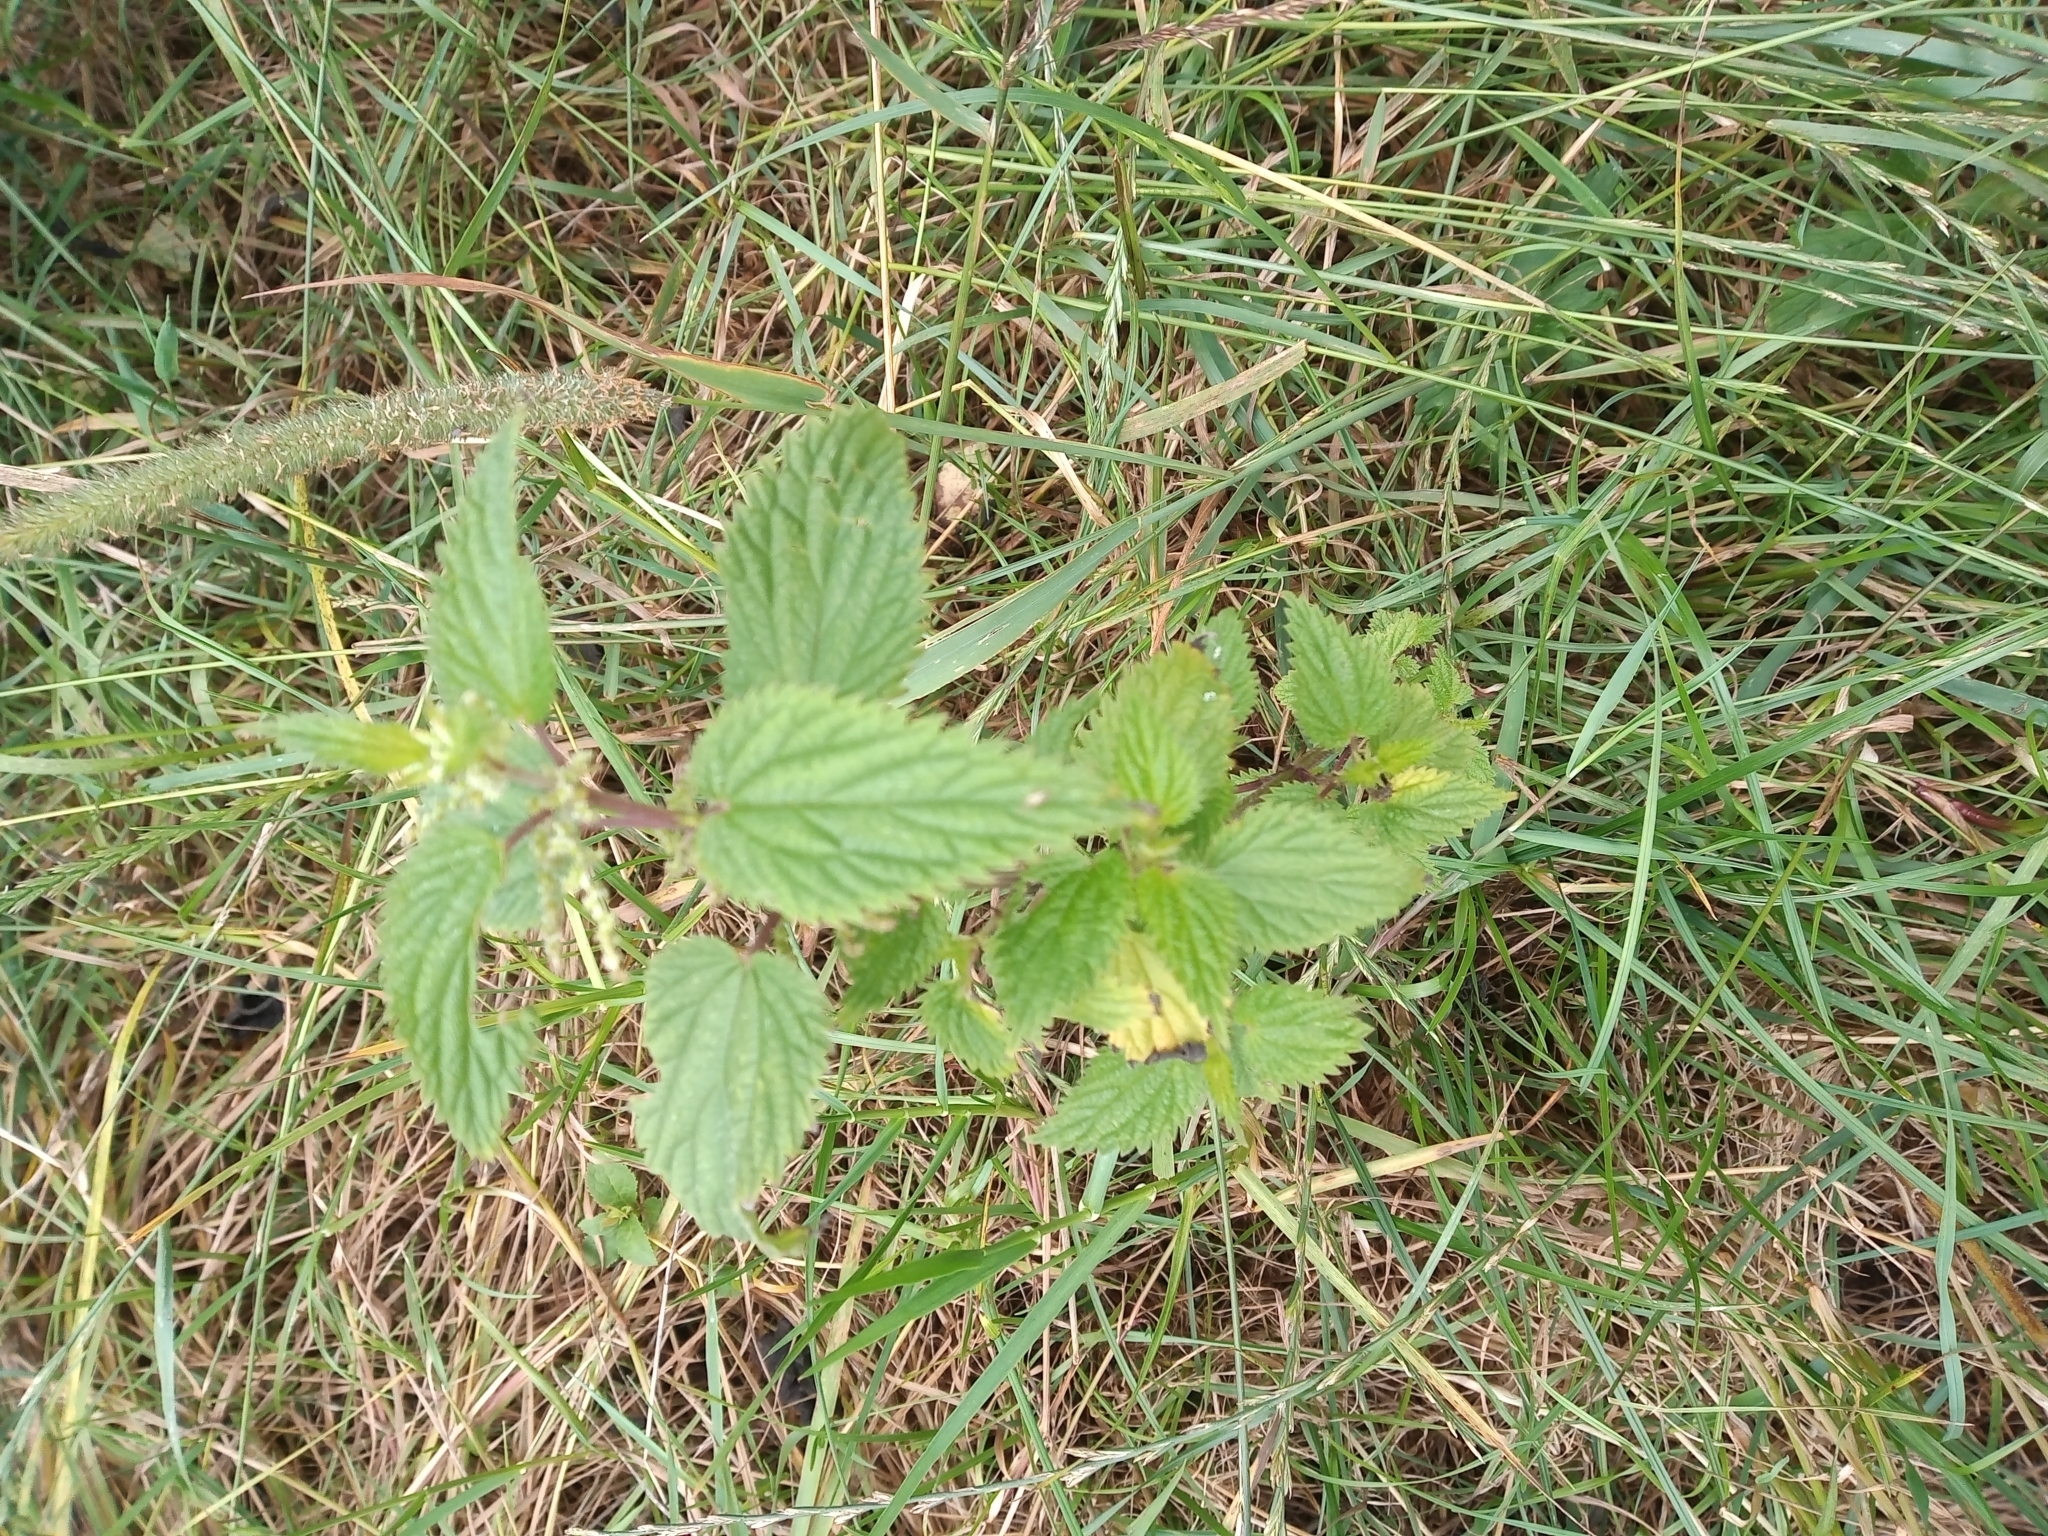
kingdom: Plantae
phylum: Tracheophyta
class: Magnoliopsida
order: Rosales
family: Urticaceae
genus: Urtica
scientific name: Urtica dioica
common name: Common nettle
